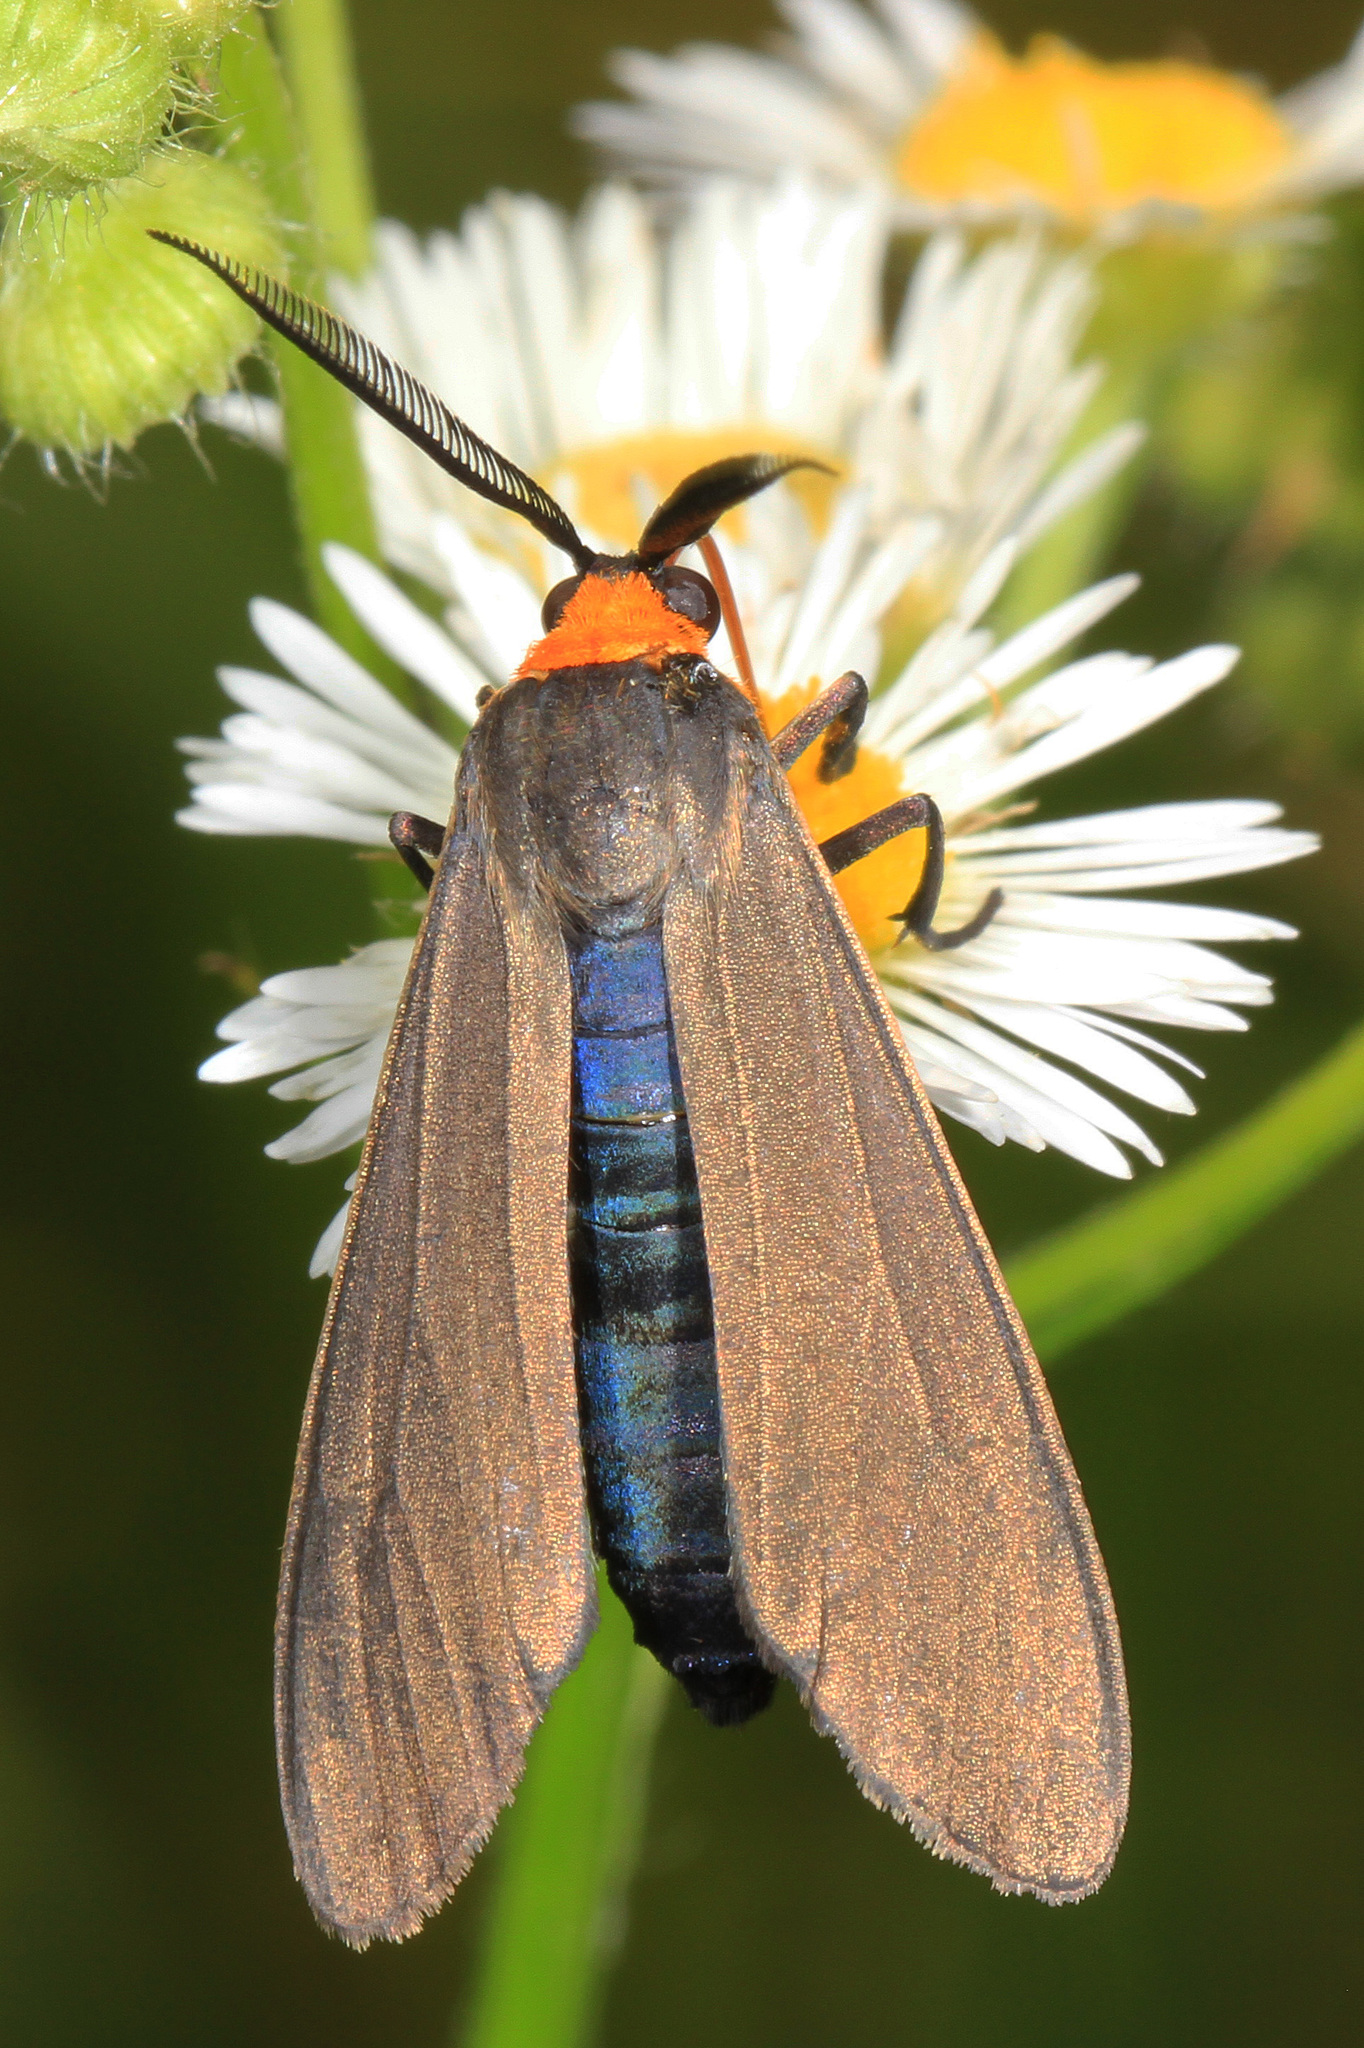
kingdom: Animalia
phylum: Arthropoda
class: Insecta
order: Lepidoptera
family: Erebidae
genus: Cisseps
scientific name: Cisseps fulvicollis
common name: Yellow-collared scape moth
